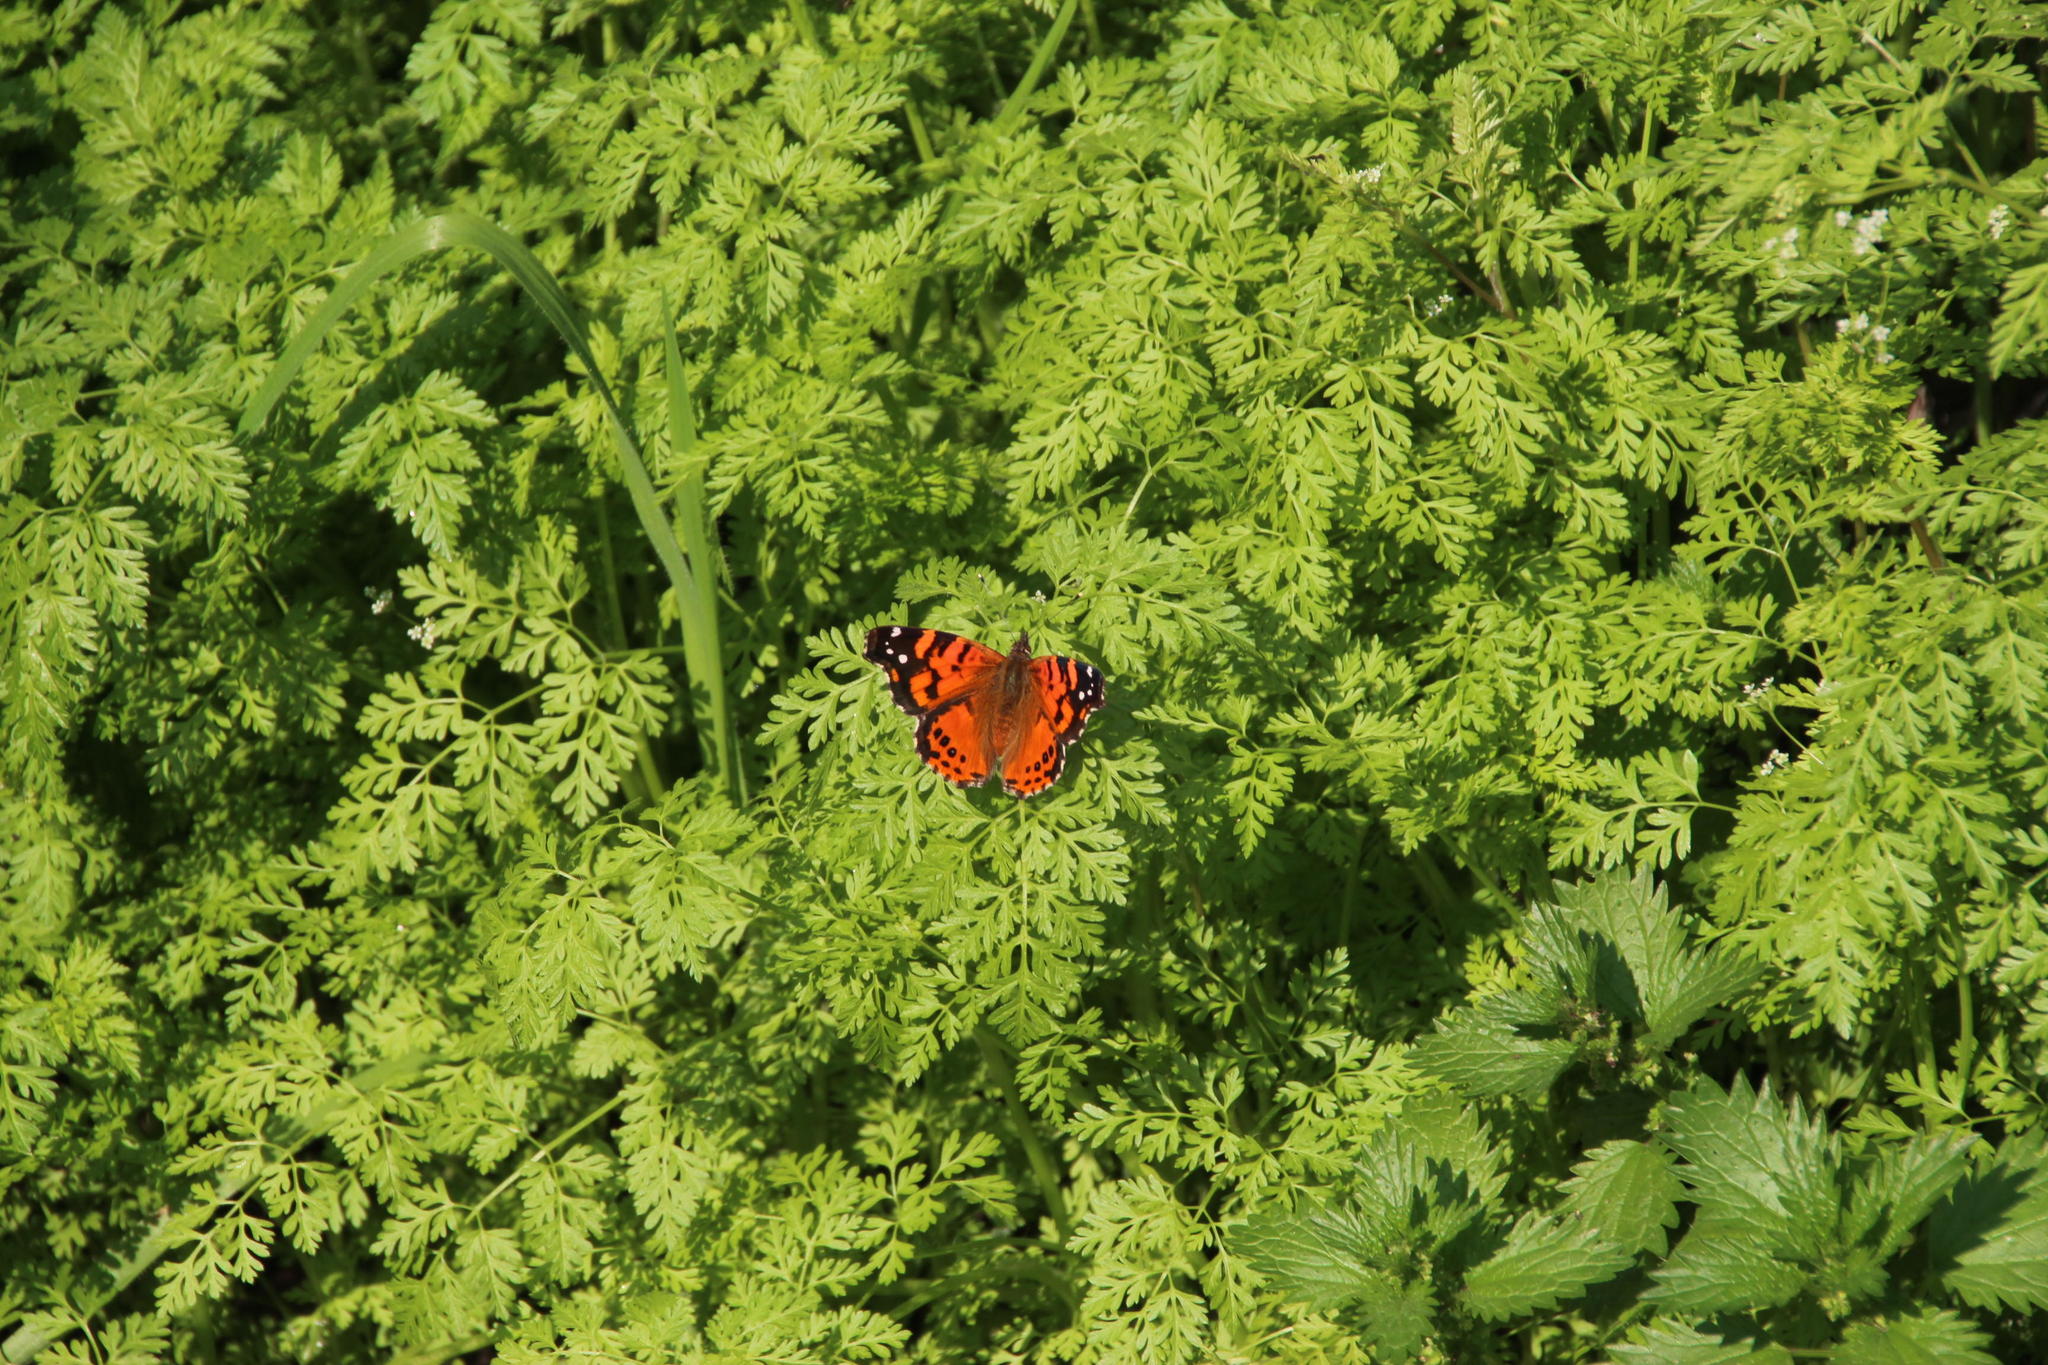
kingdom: Animalia
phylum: Arthropoda
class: Insecta
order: Lepidoptera
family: Nymphalidae
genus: Vanessa
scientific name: Vanessa carye
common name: Subtropical lady
